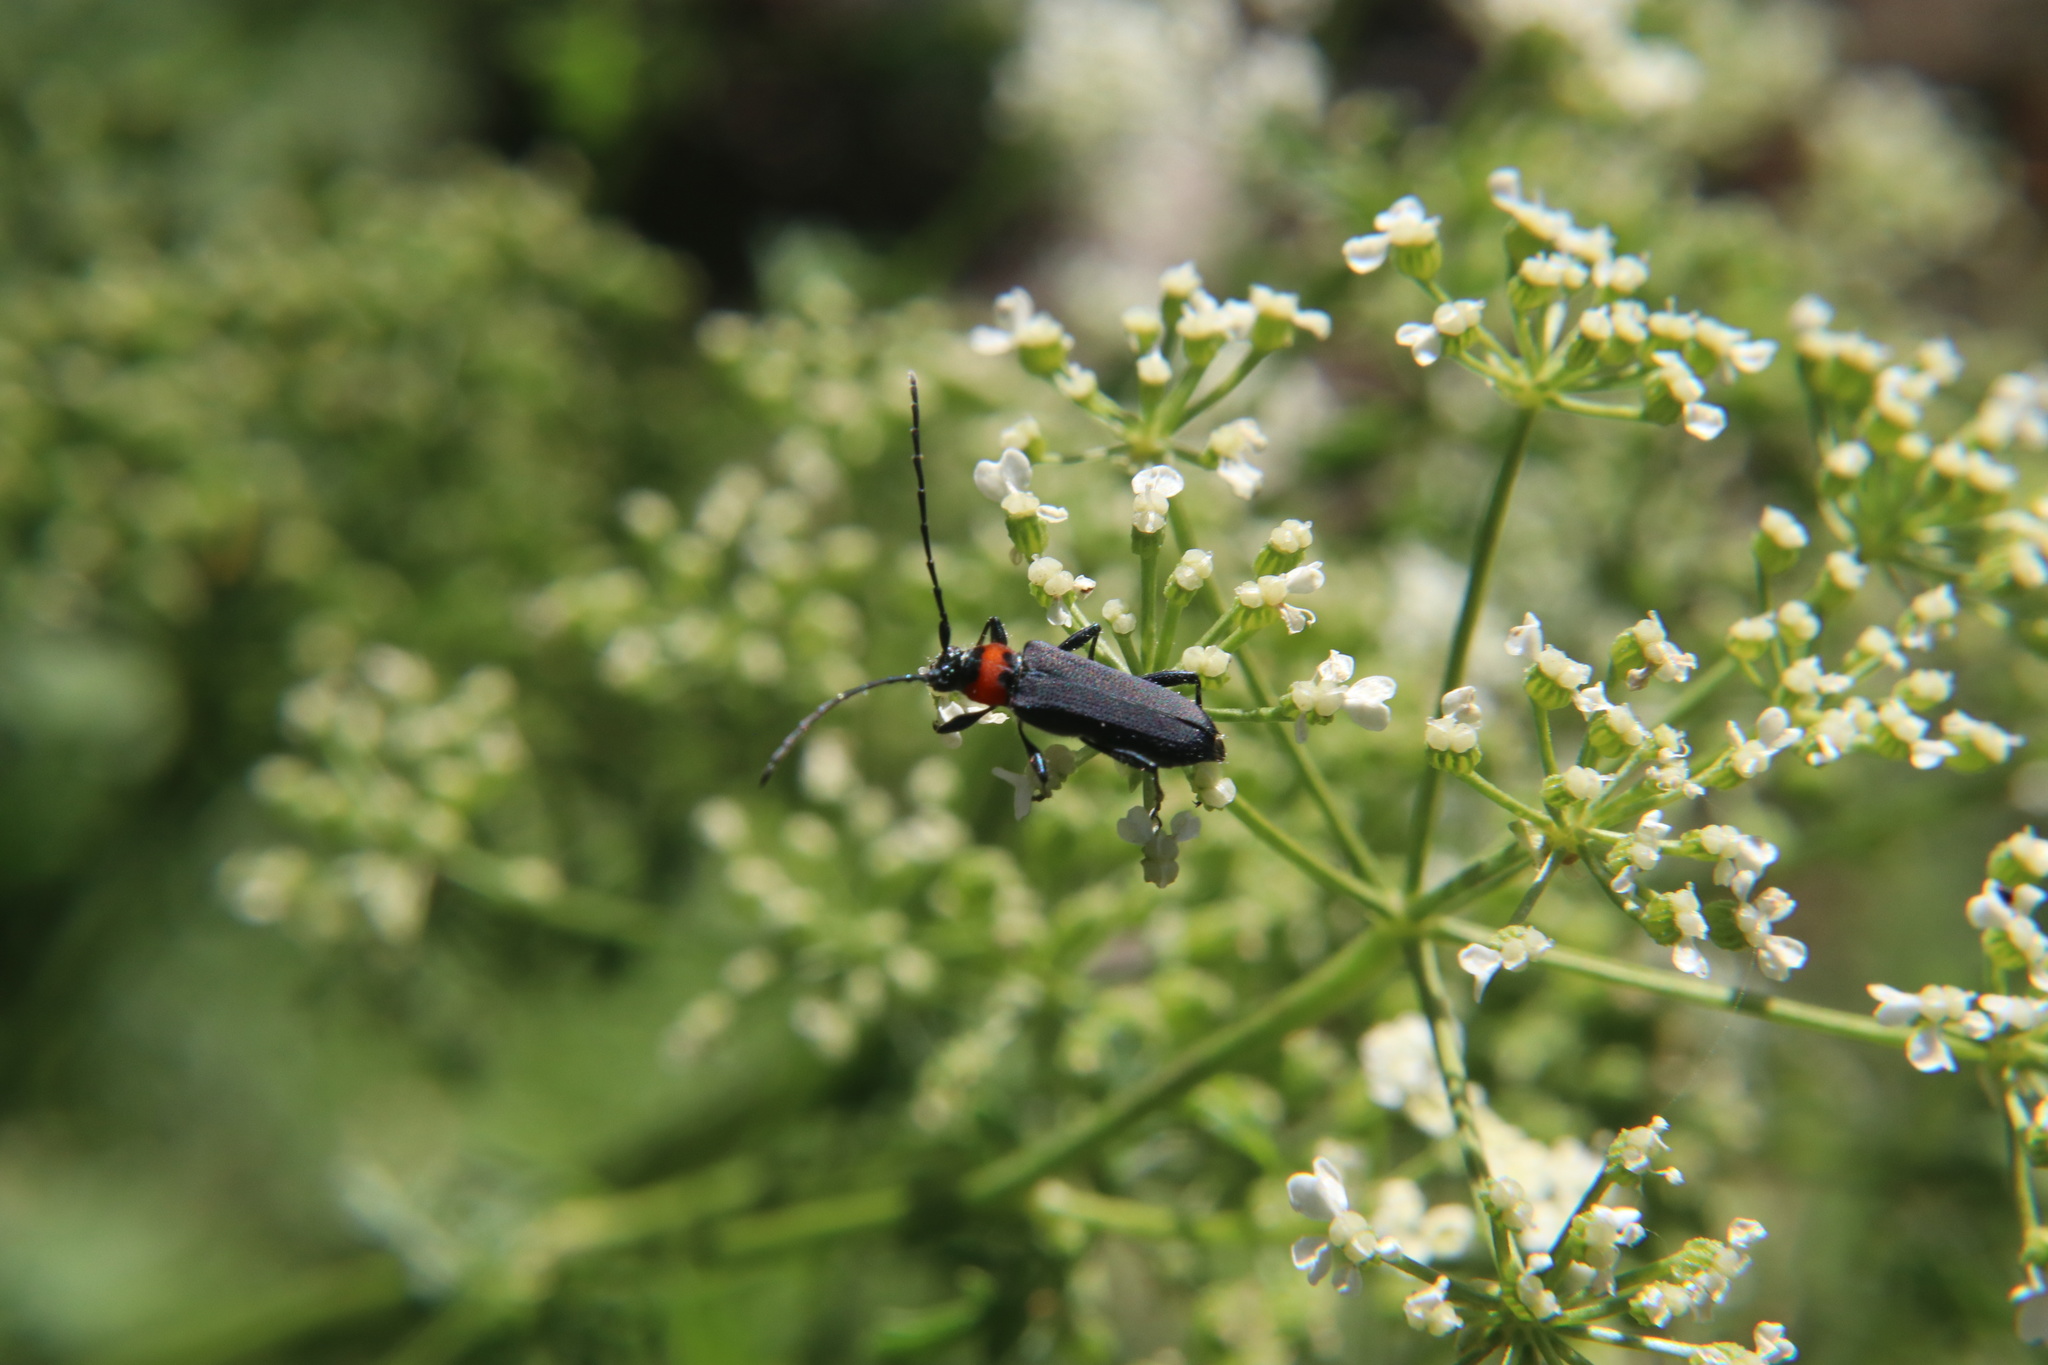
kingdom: Animalia
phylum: Arthropoda
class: Insecta
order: Coleoptera
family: Cerambycidae
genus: Eryphus
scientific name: Eryphus laetus
